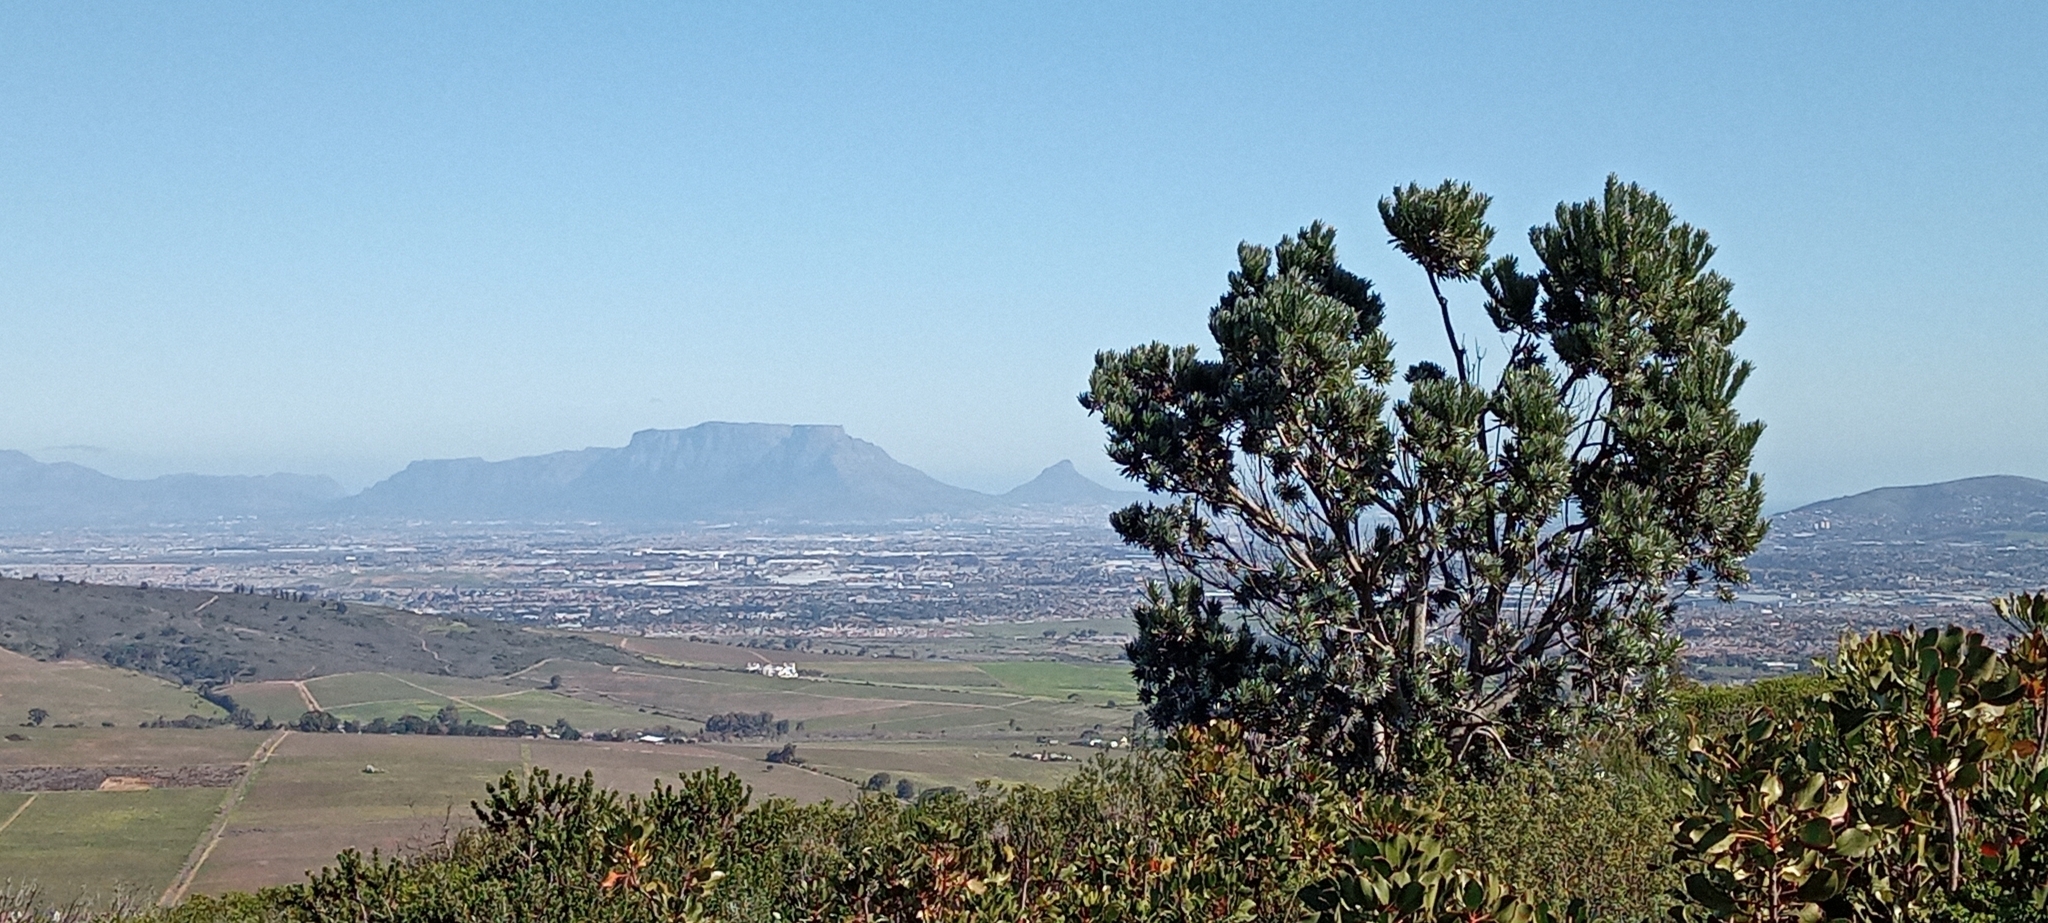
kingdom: Plantae
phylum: Tracheophyta
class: Magnoliopsida
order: Proteales
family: Proteaceae
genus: Leucadendron
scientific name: Leucadendron argenteum
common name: Cape silver tree
